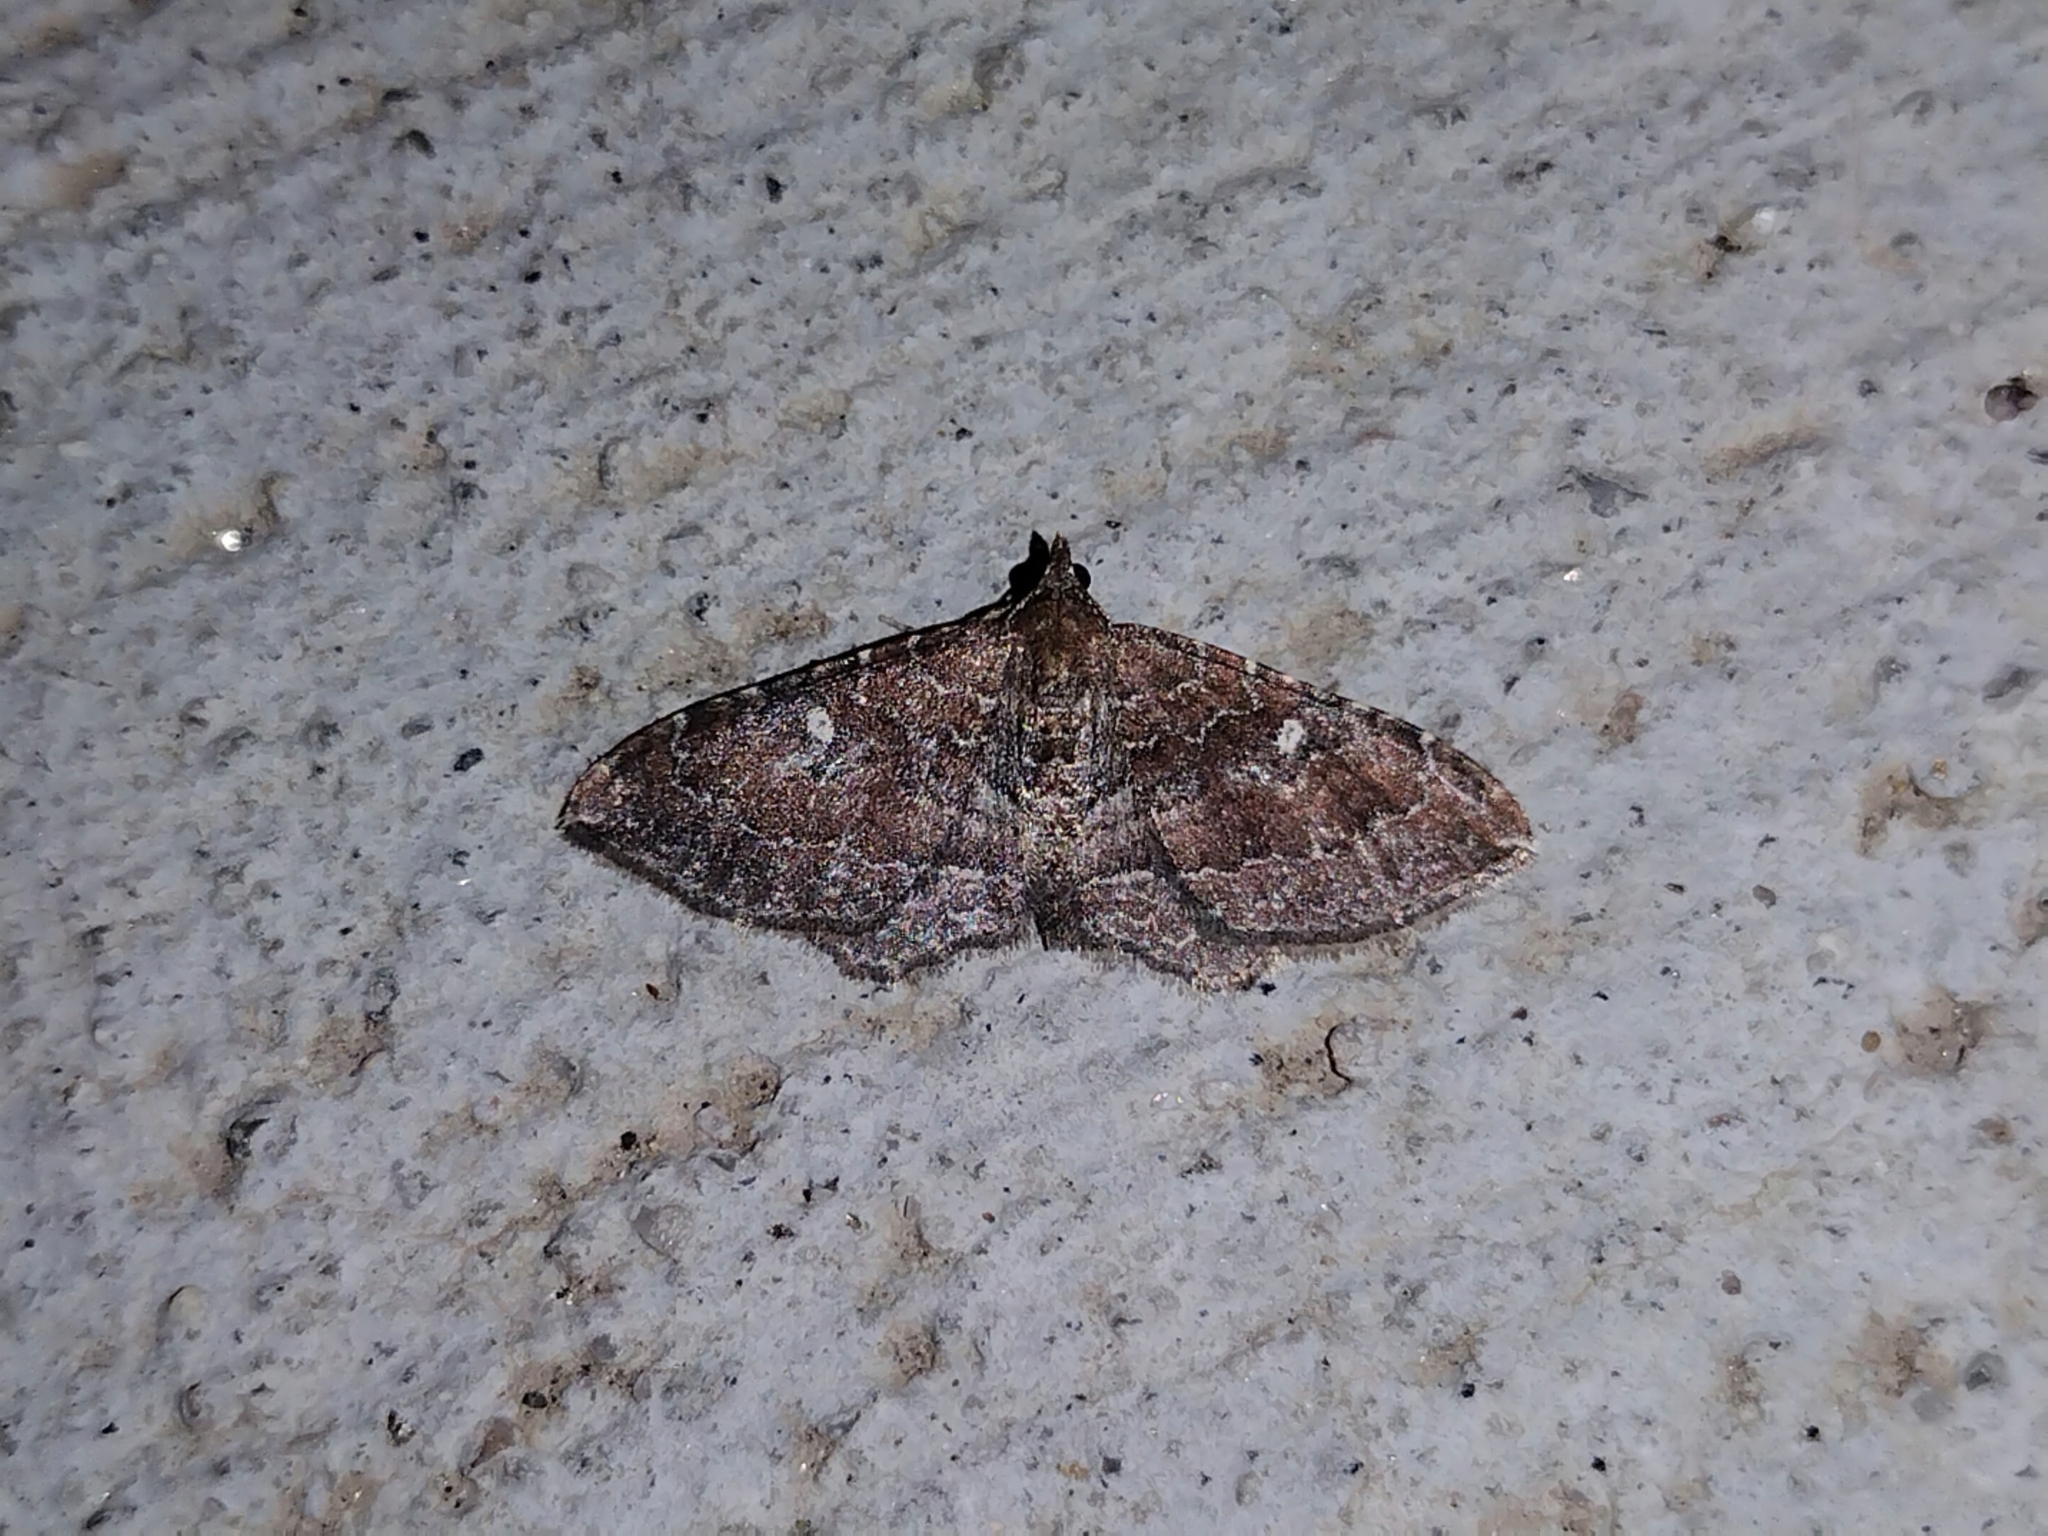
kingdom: Animalia
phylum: Arthropoda
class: Insecta
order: Lepidoptera
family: Geometridae
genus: Orthonama
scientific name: Orthonama obstipata
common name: The gem
